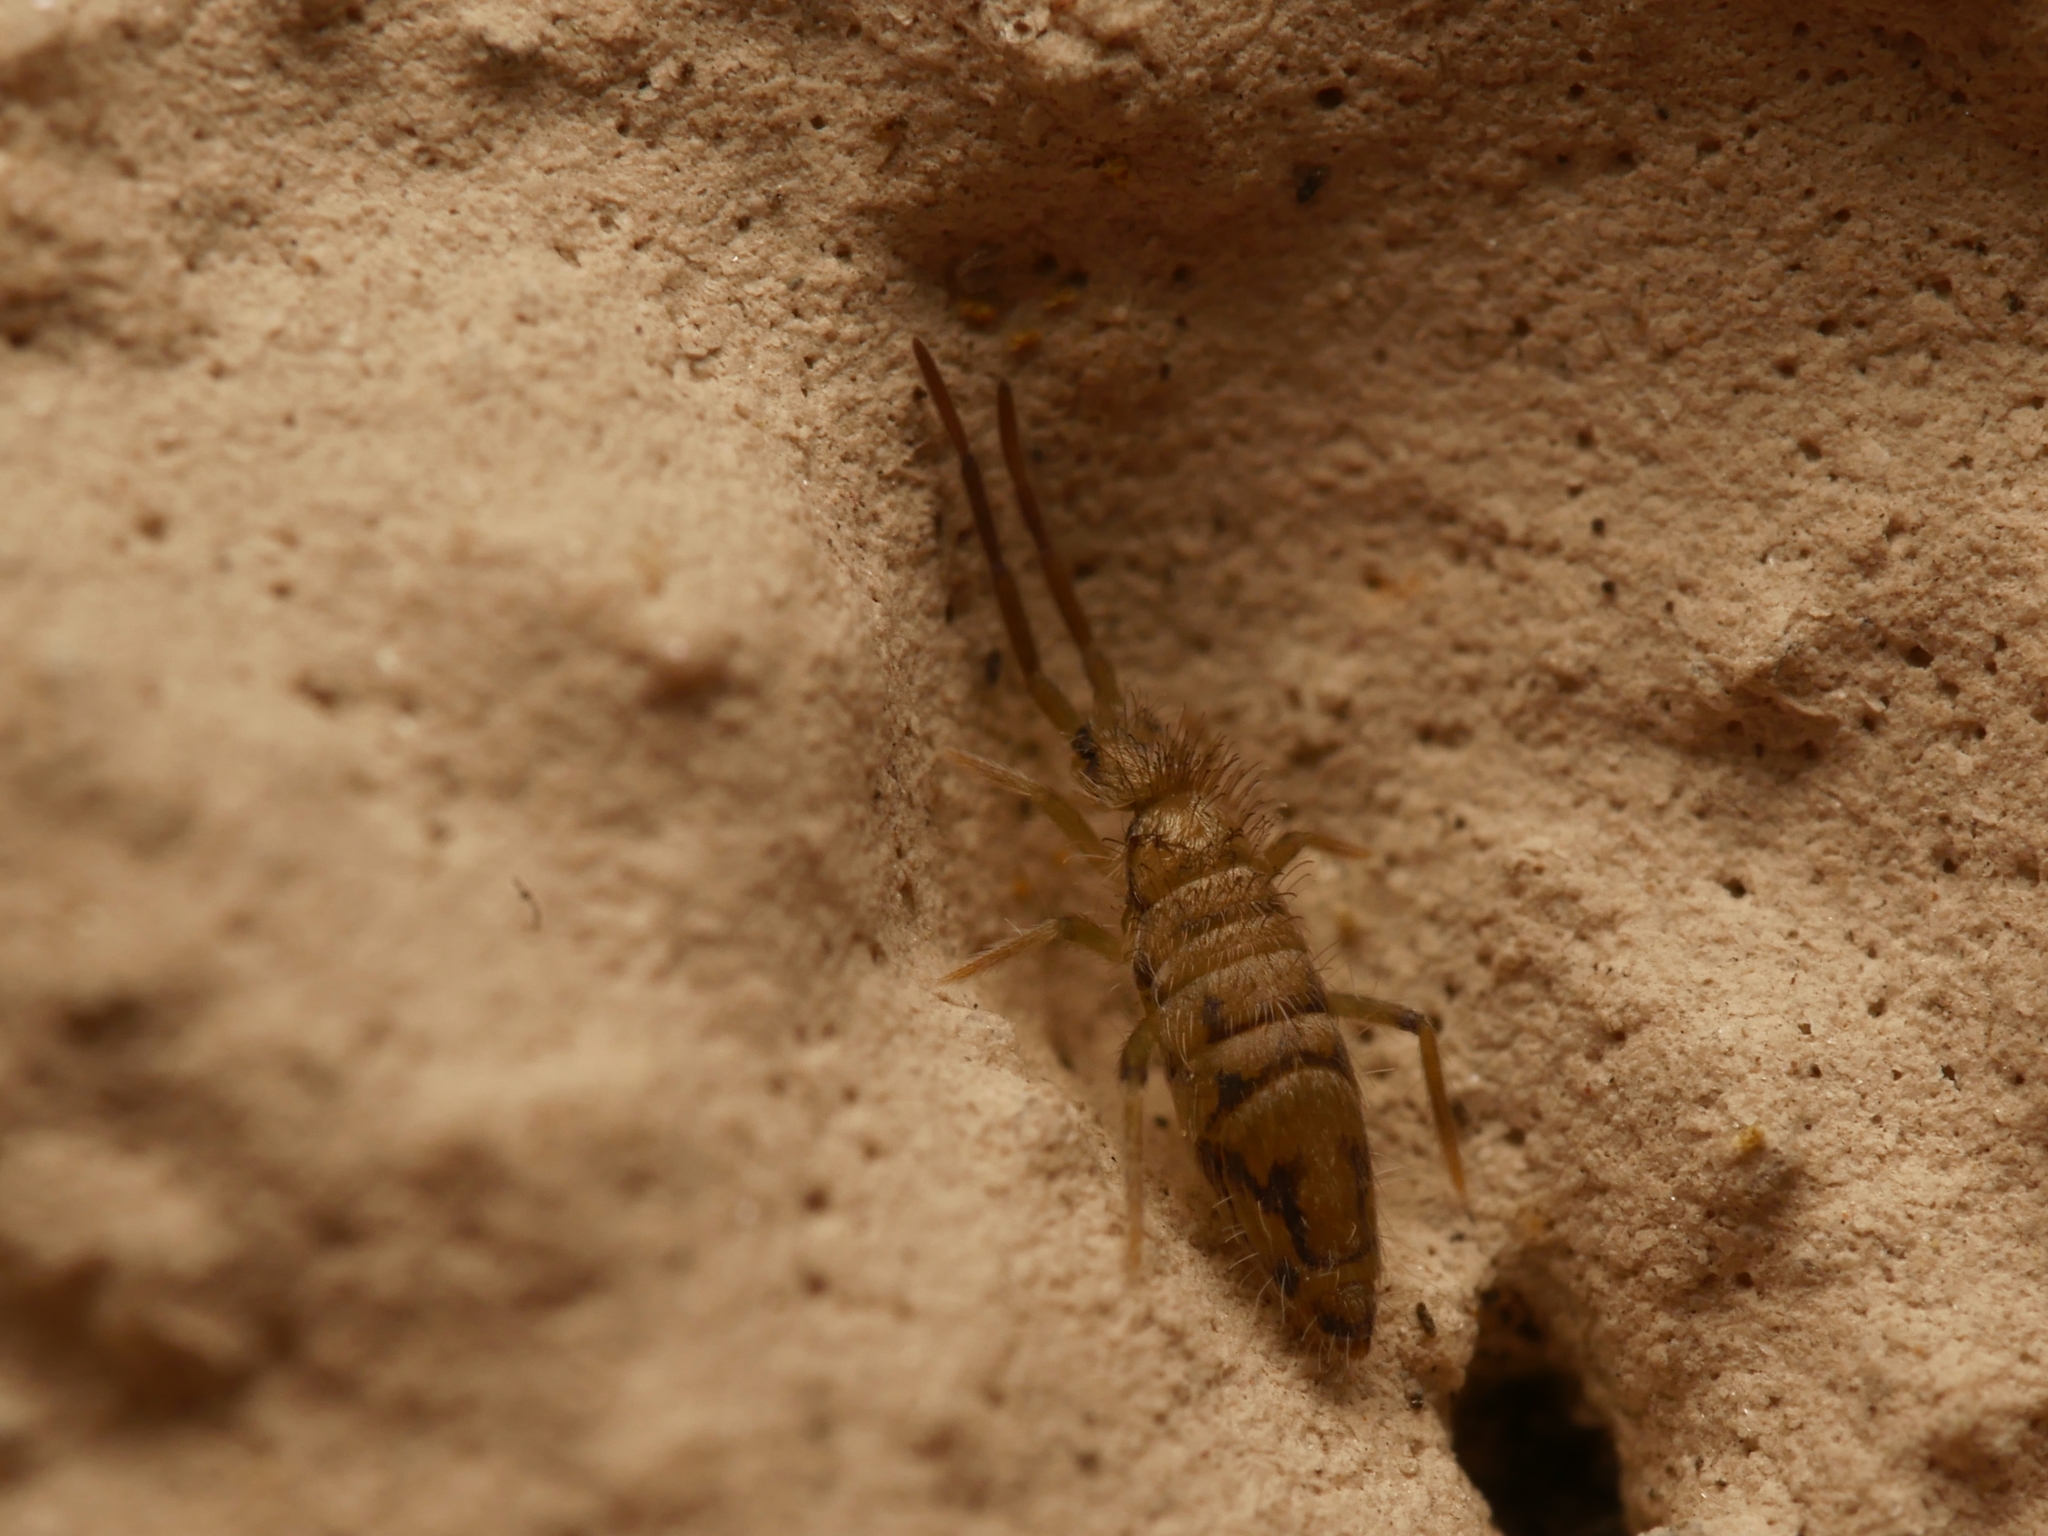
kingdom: Animalia
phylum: Arthropoda
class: Collembola
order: Entomobryomorpha
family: Entomobryidae
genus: Entomobrya
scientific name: Entomobrya nivalis
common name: Cosmopolitan springtail
